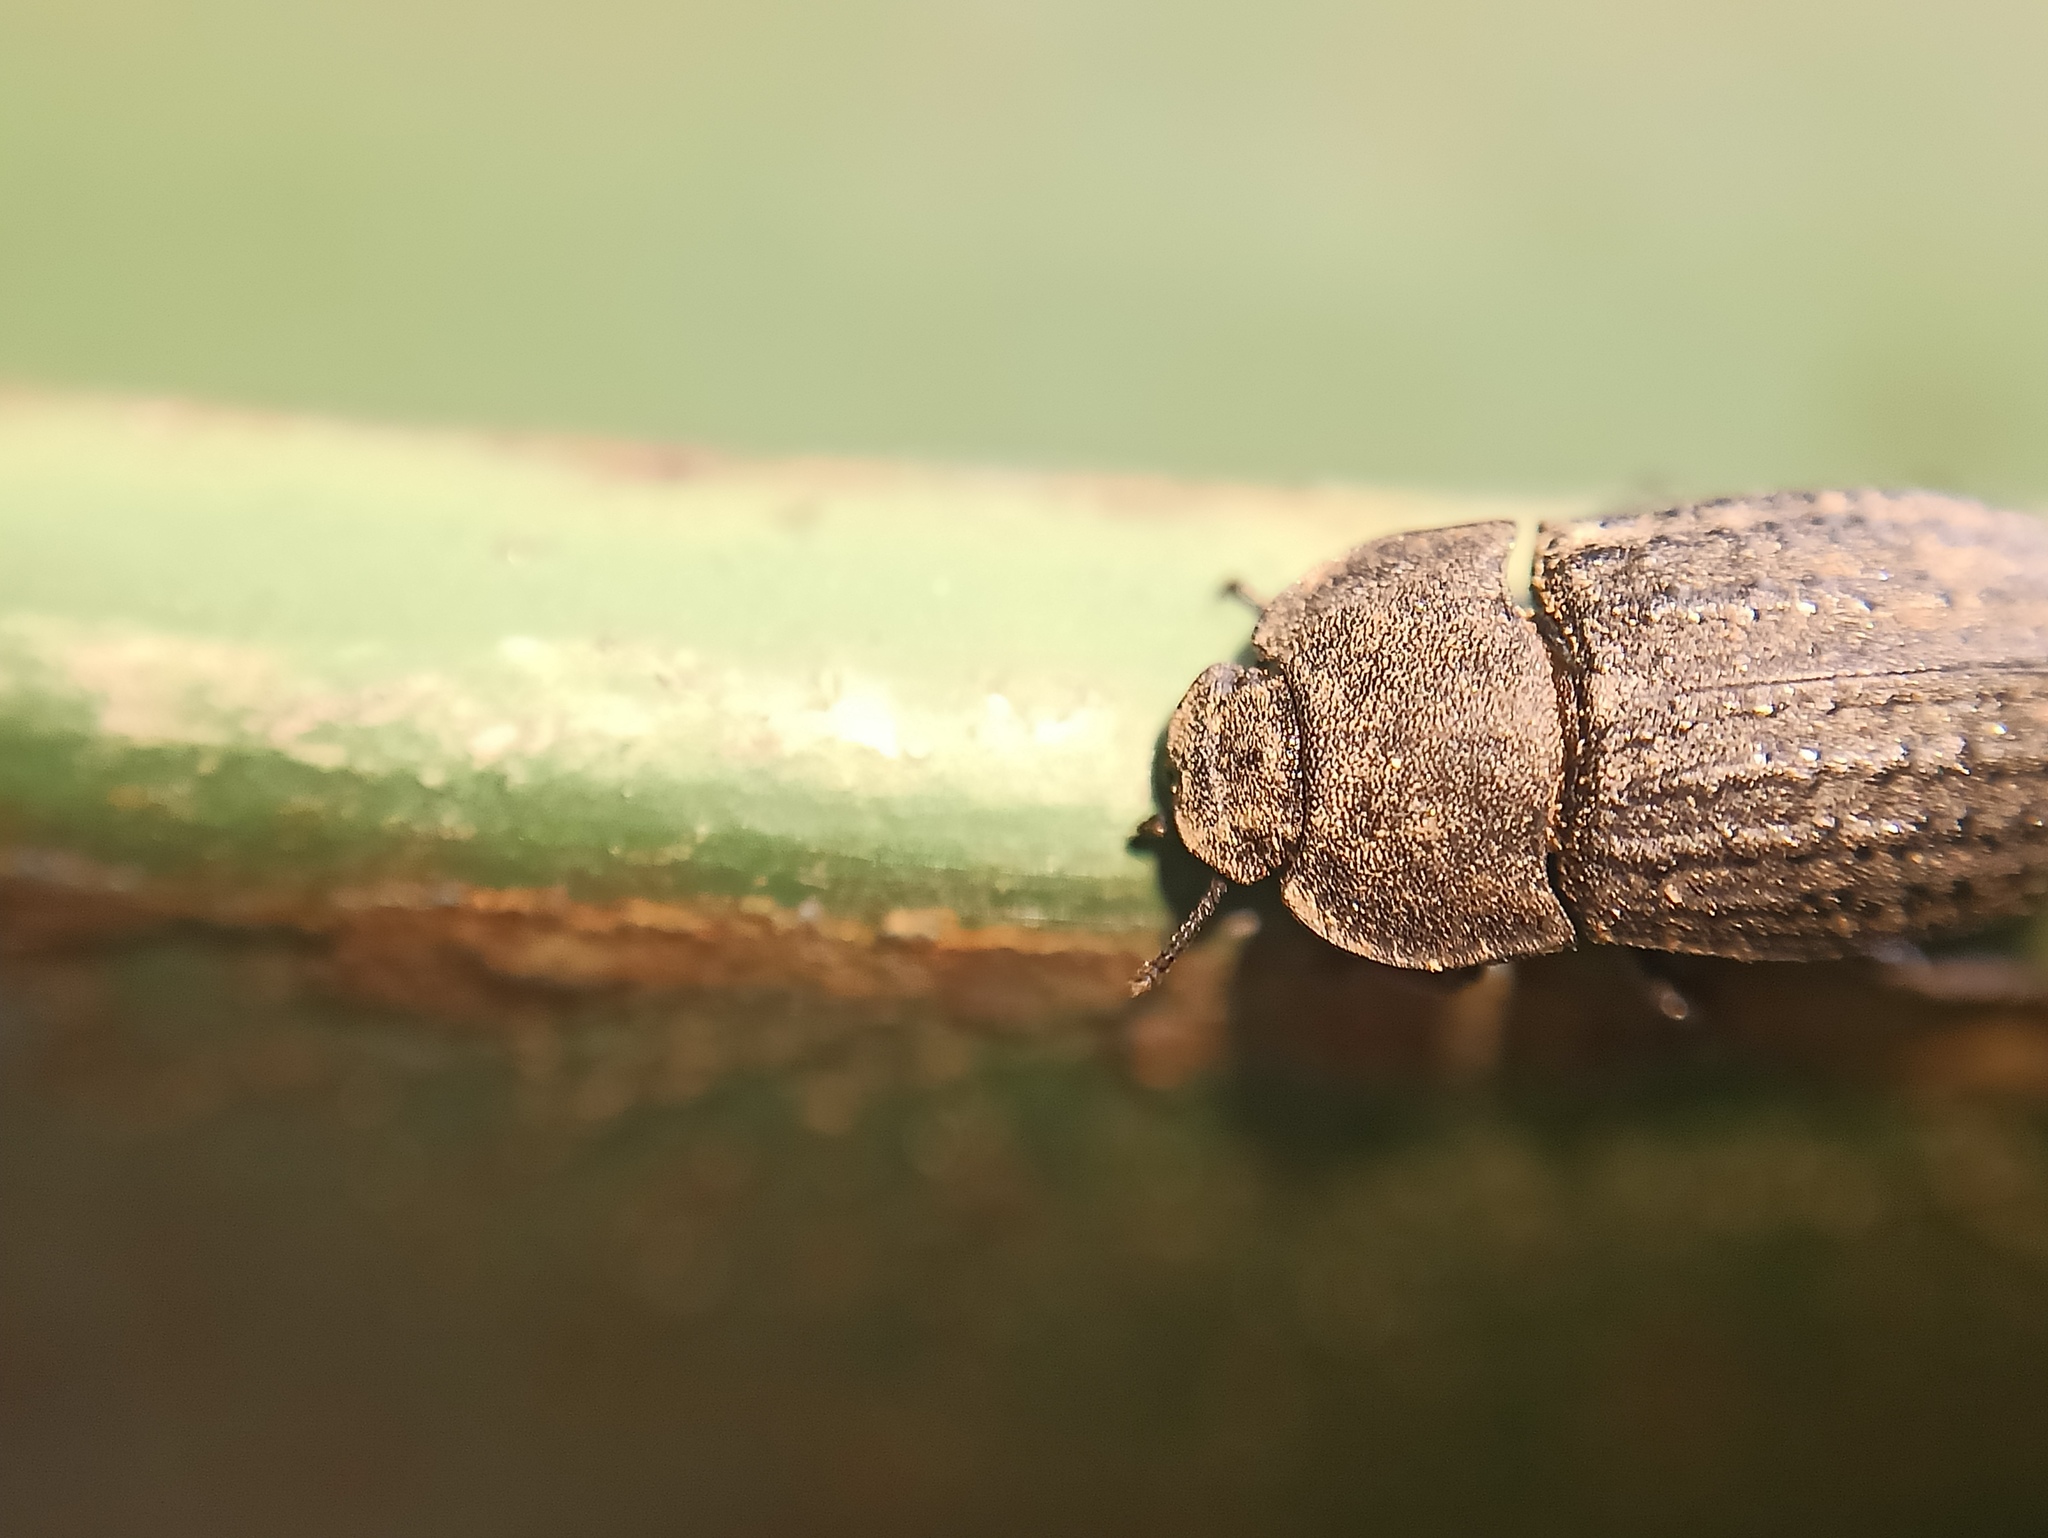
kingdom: Animalia
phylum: Arthropoda
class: Insecta
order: Coleoptera
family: Tenebrionidae
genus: Opatrum
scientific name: Opatrum sabulosum
